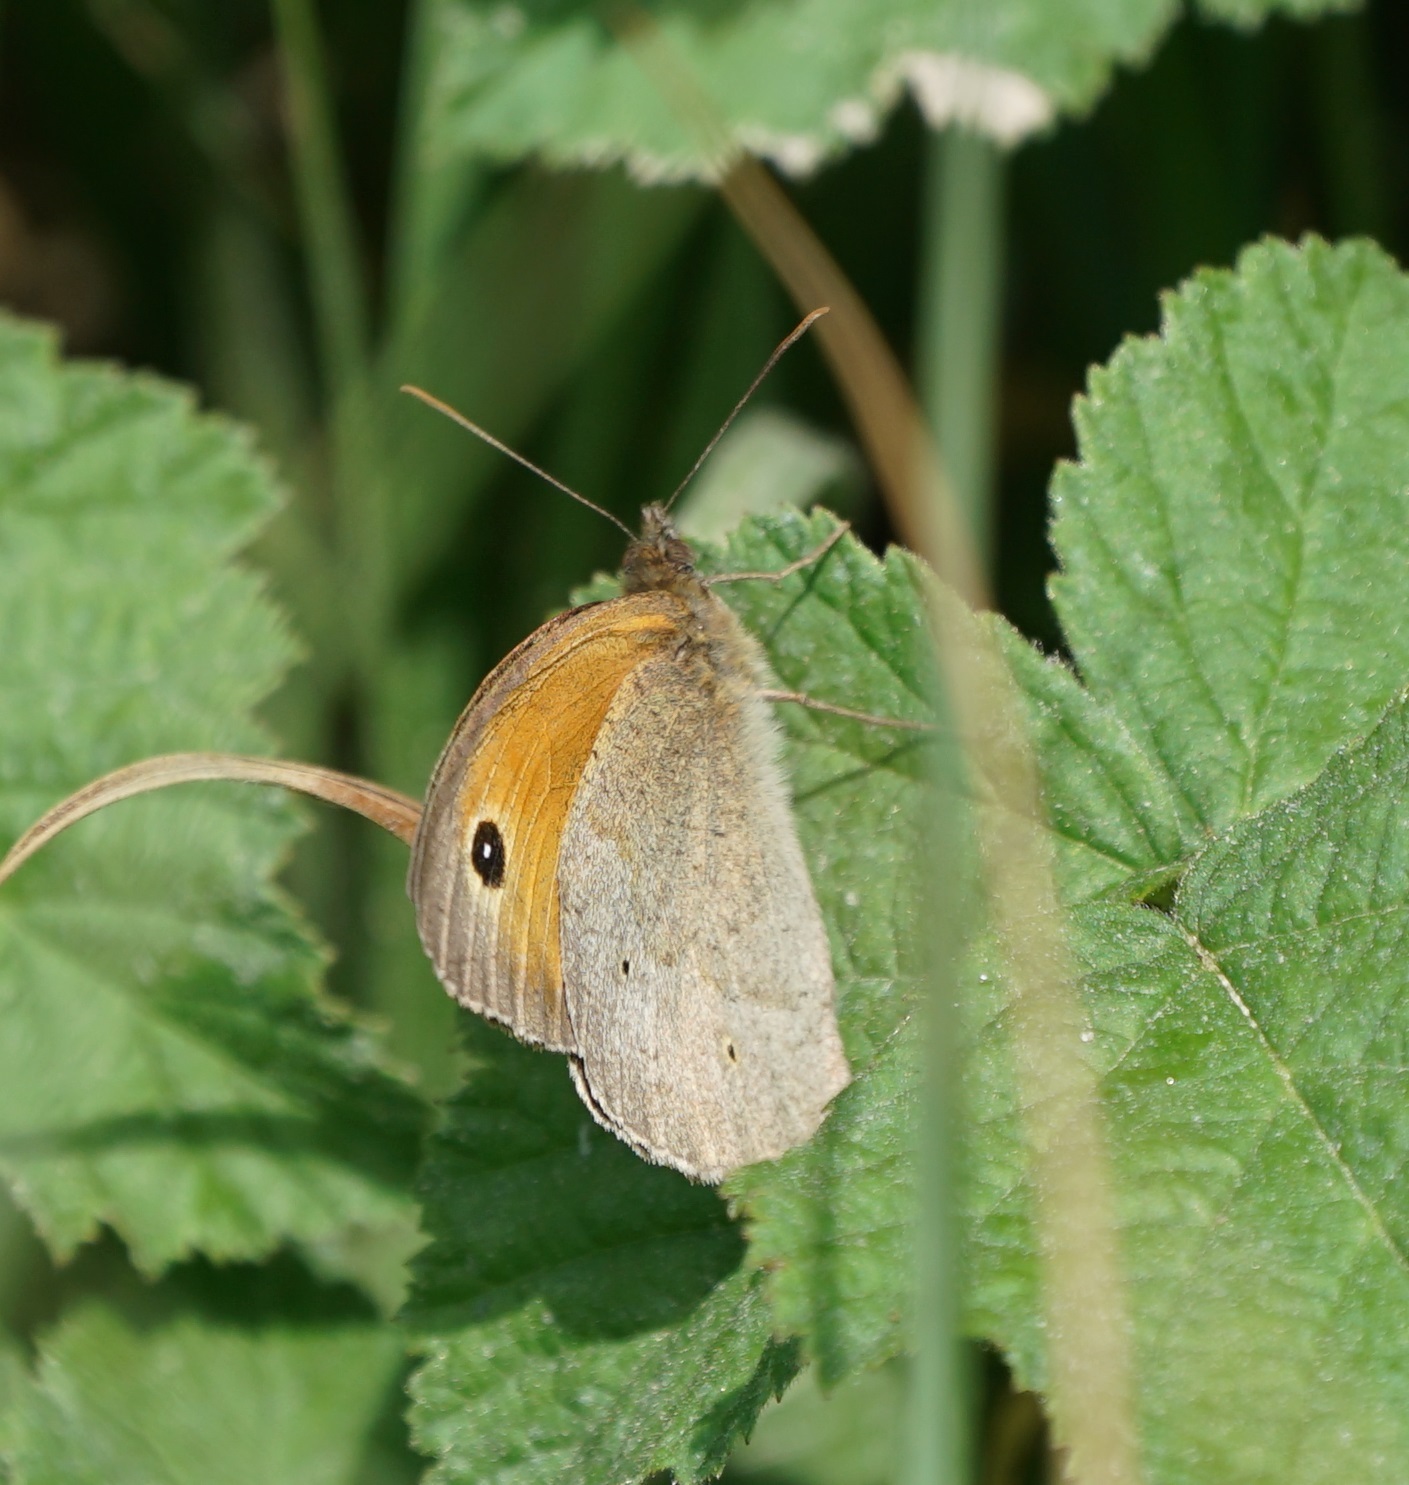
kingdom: Animalia
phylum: Arthropoda
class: Insecta
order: Lepidoptera
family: Nymphalidae
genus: Maniola
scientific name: Maniola jurtina
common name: Meadow brown
